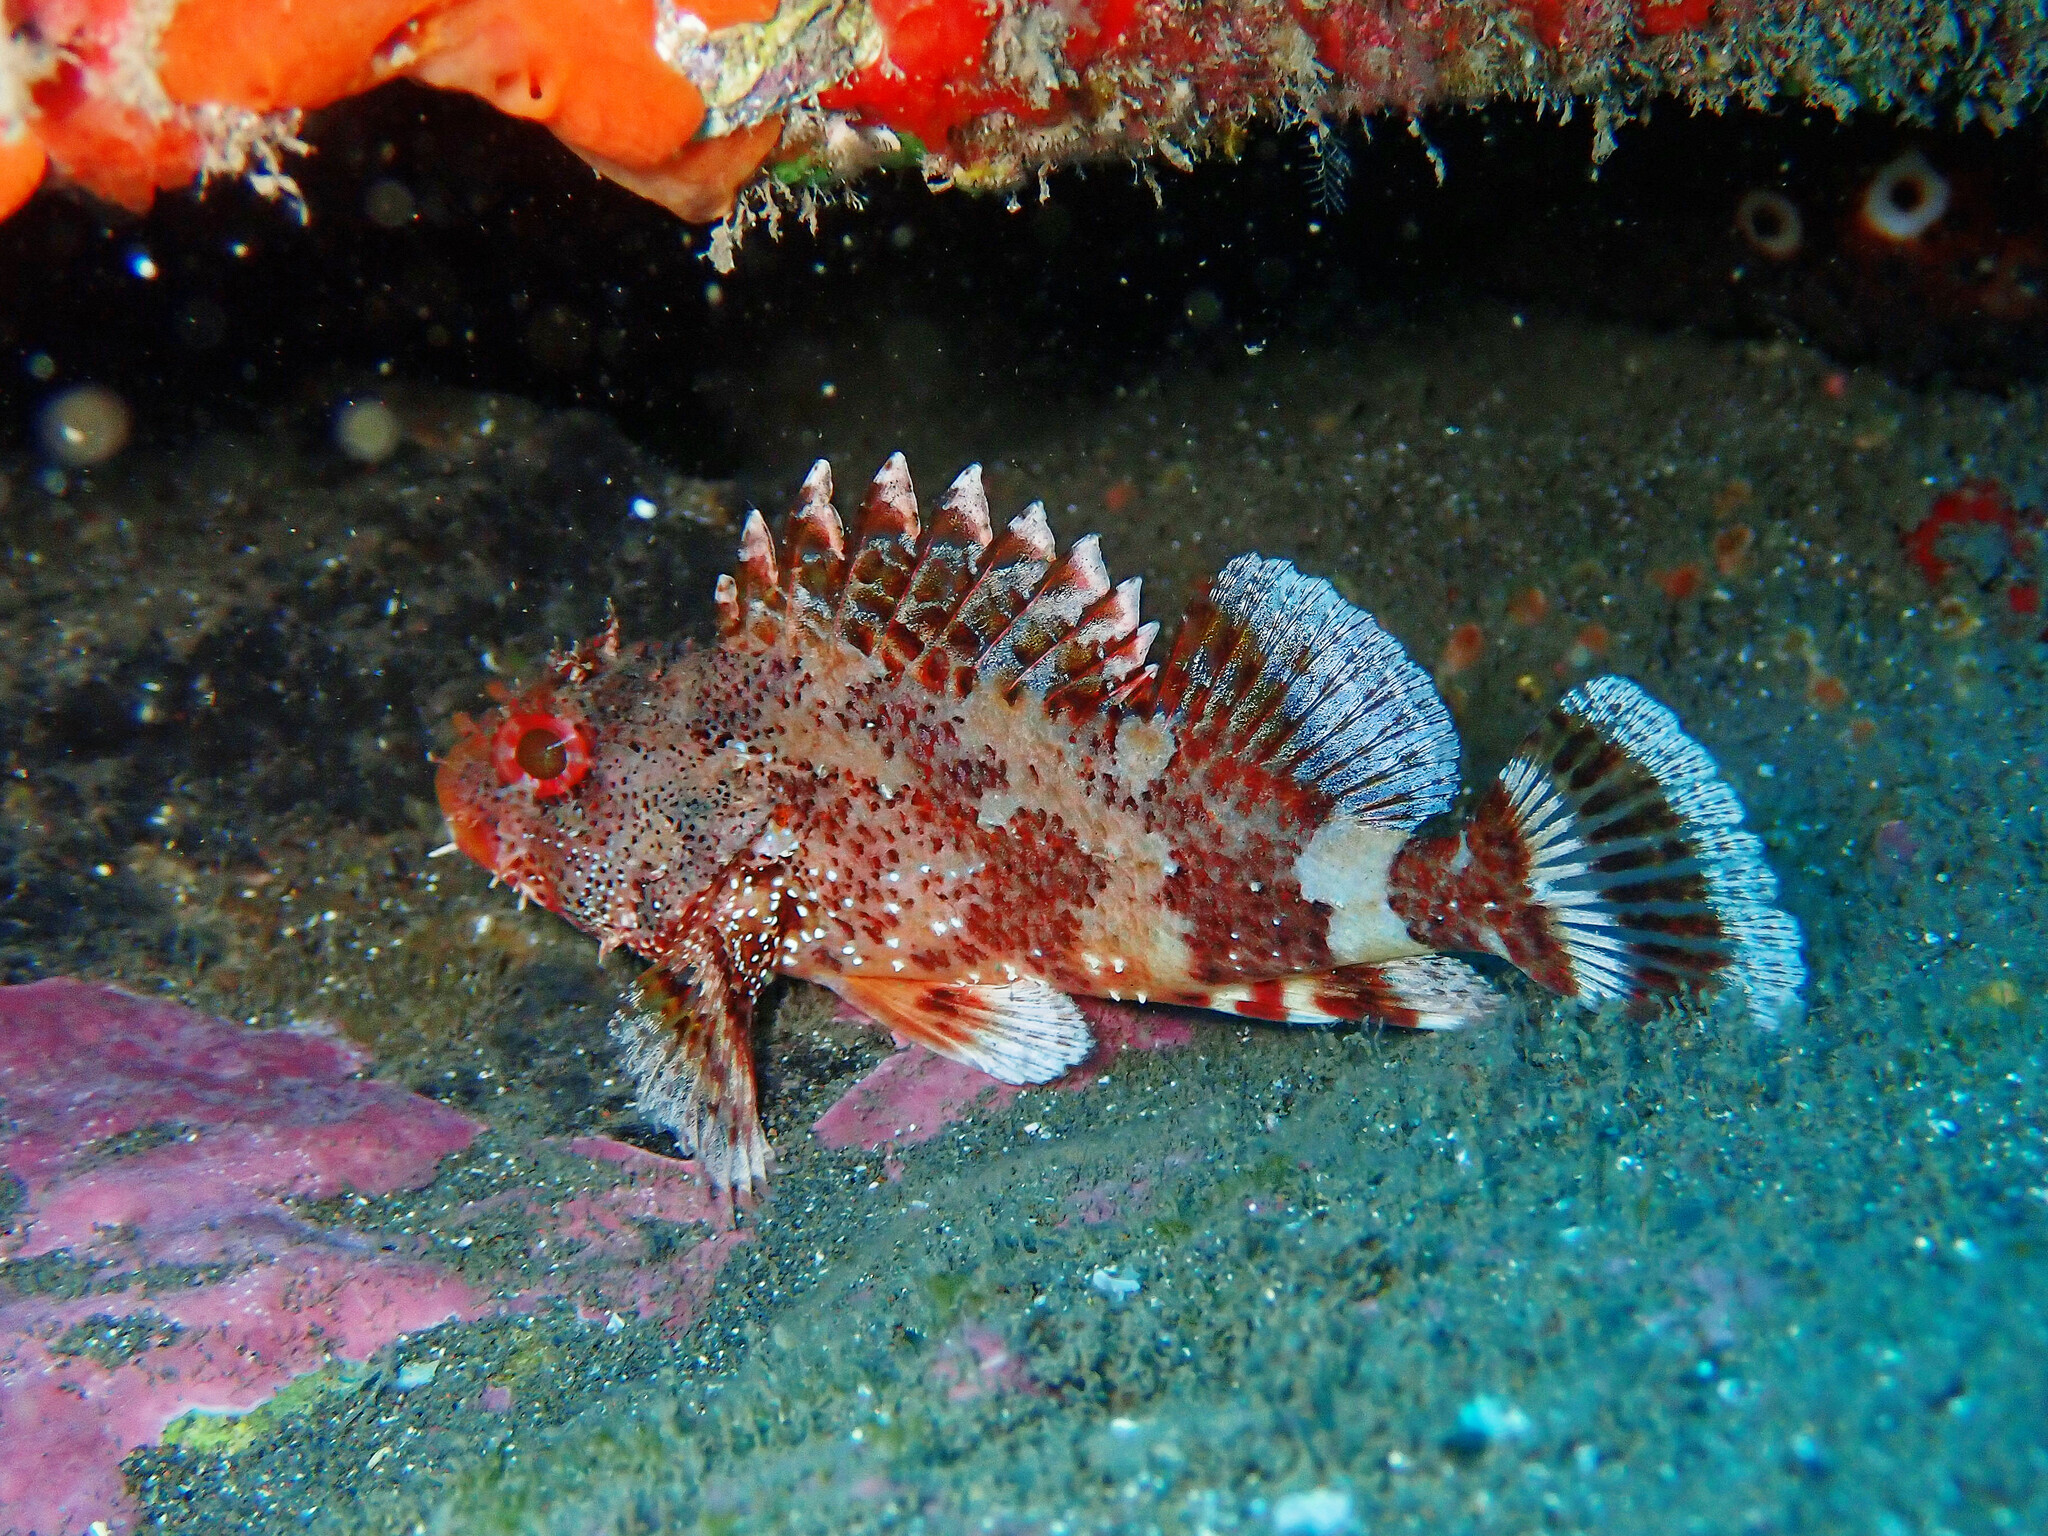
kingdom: Animalia
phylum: Chordata
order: Scorpaeniformes
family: Scorpaenidae
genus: Scorpaena
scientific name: Scorpaena maderensis
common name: Madeira rockfish
